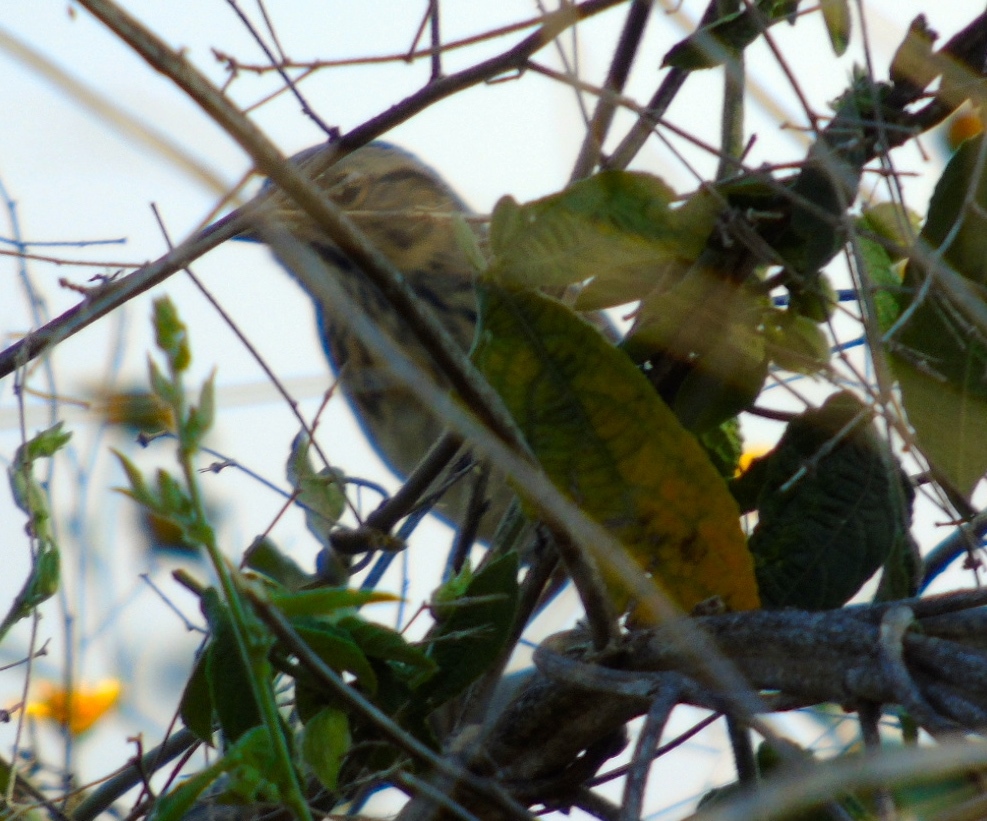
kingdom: Animalia
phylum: Chordata
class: Aves
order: Passeriformes
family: Passerellidae
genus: Melospiza
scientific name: Melospiza lincolnii
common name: Lincoln's sparrow
